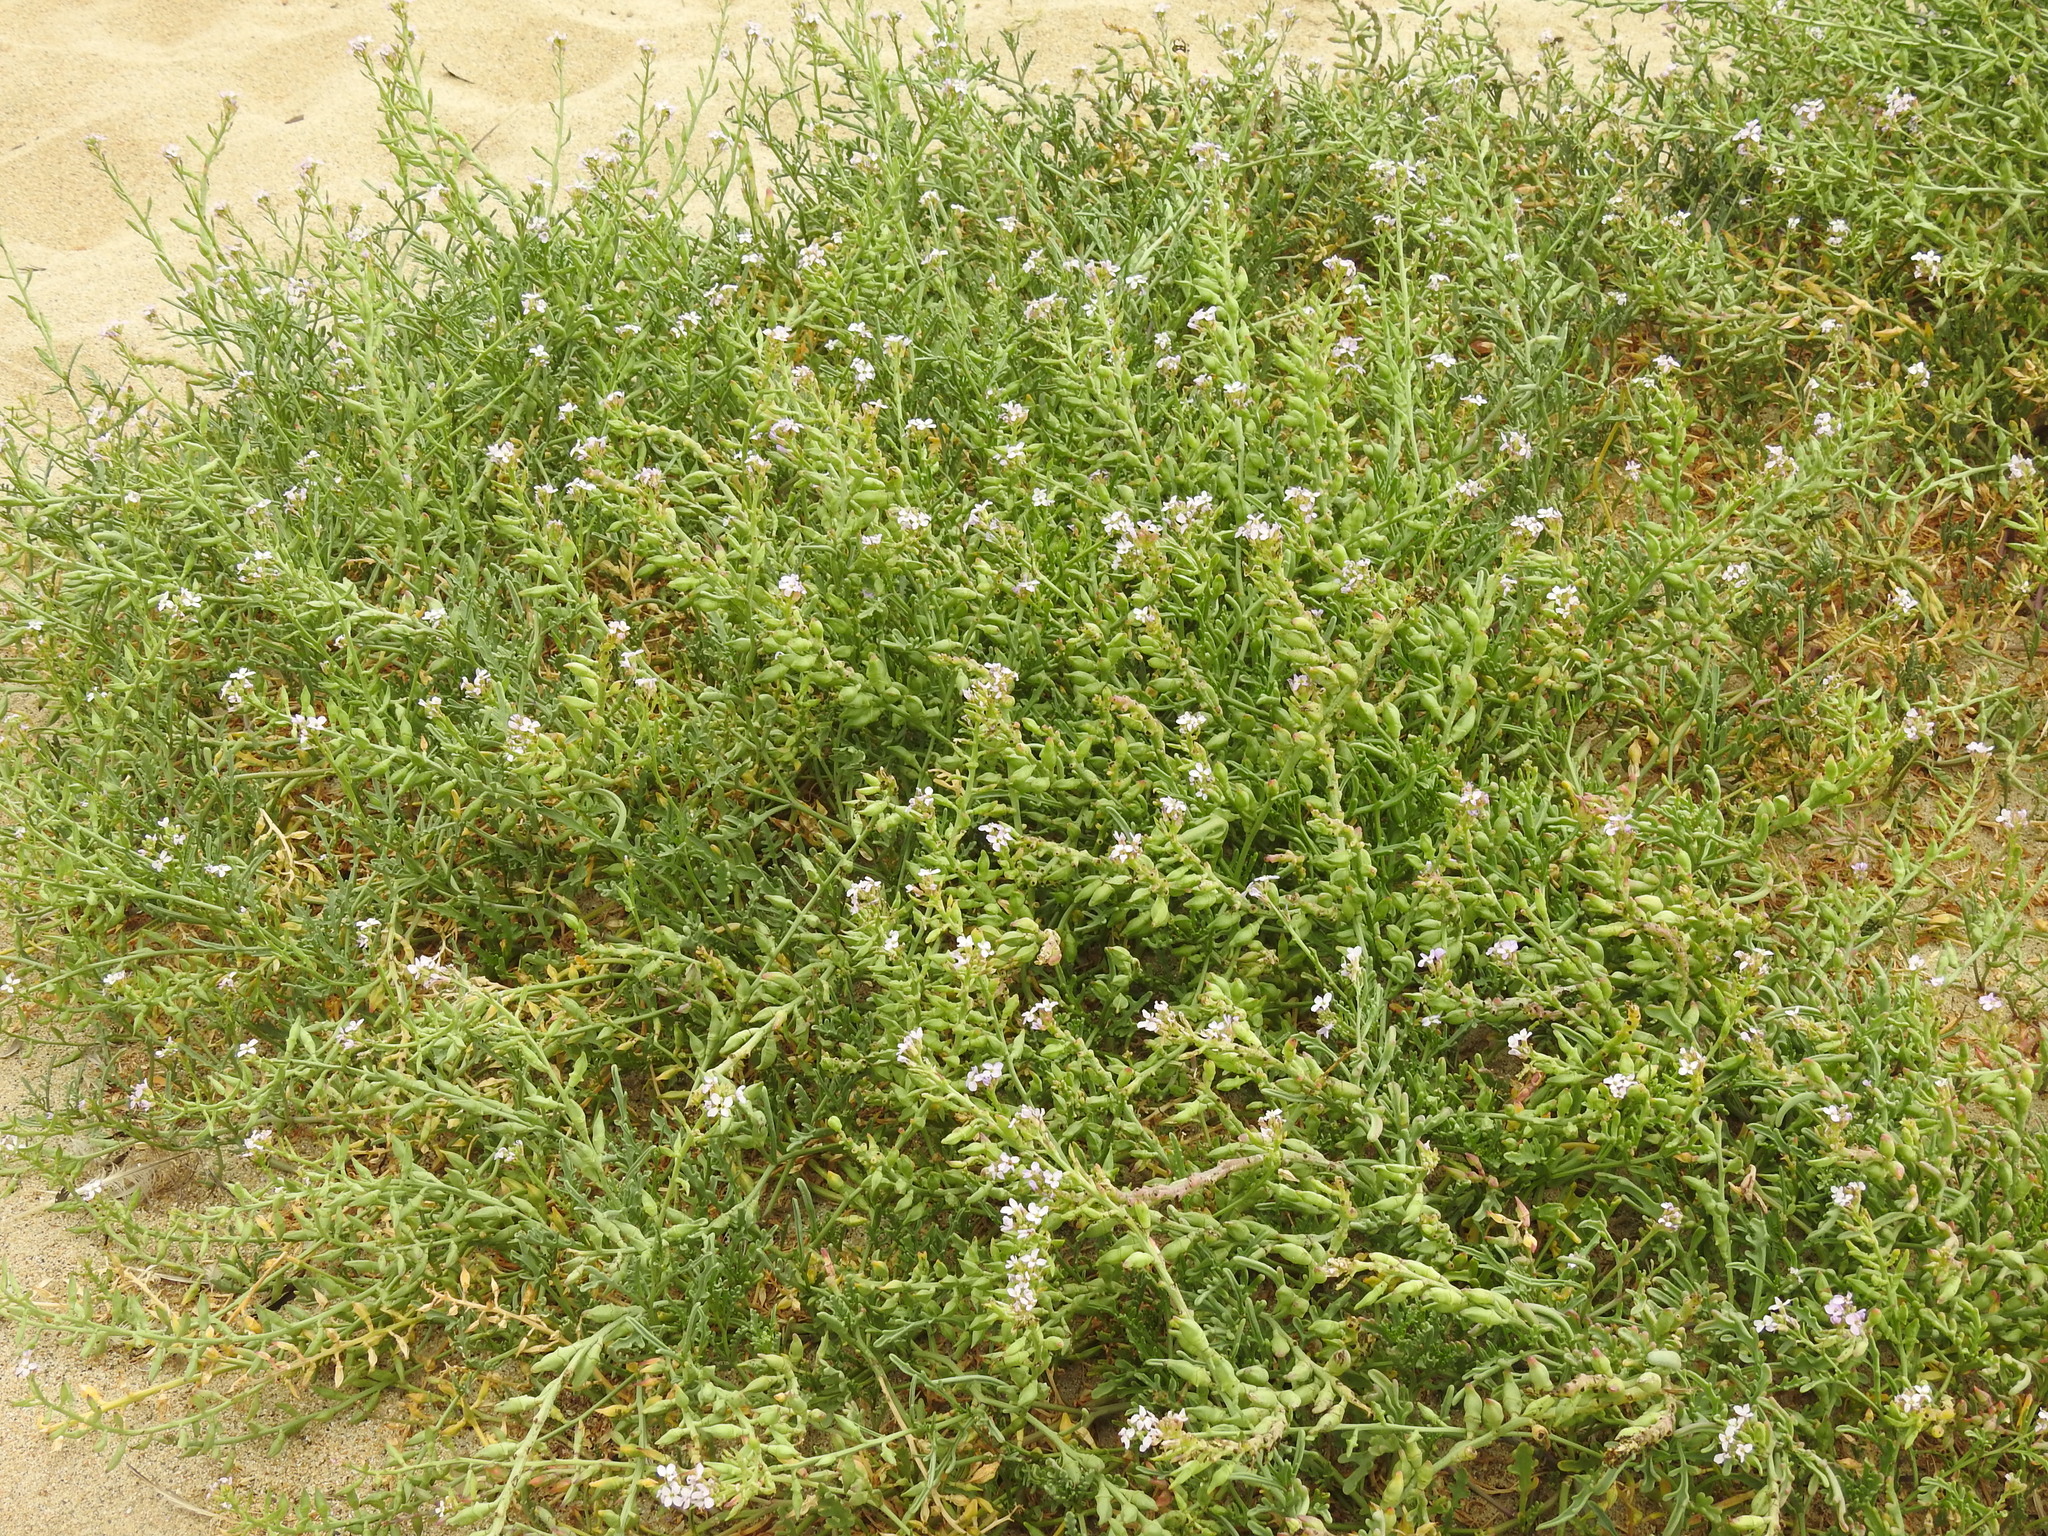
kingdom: Plantae
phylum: Tracheophyta
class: Magnoliopsida
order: Brassicales
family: Brassicaceae
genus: Cakile
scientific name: Cakile maritima
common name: Sea rocket
